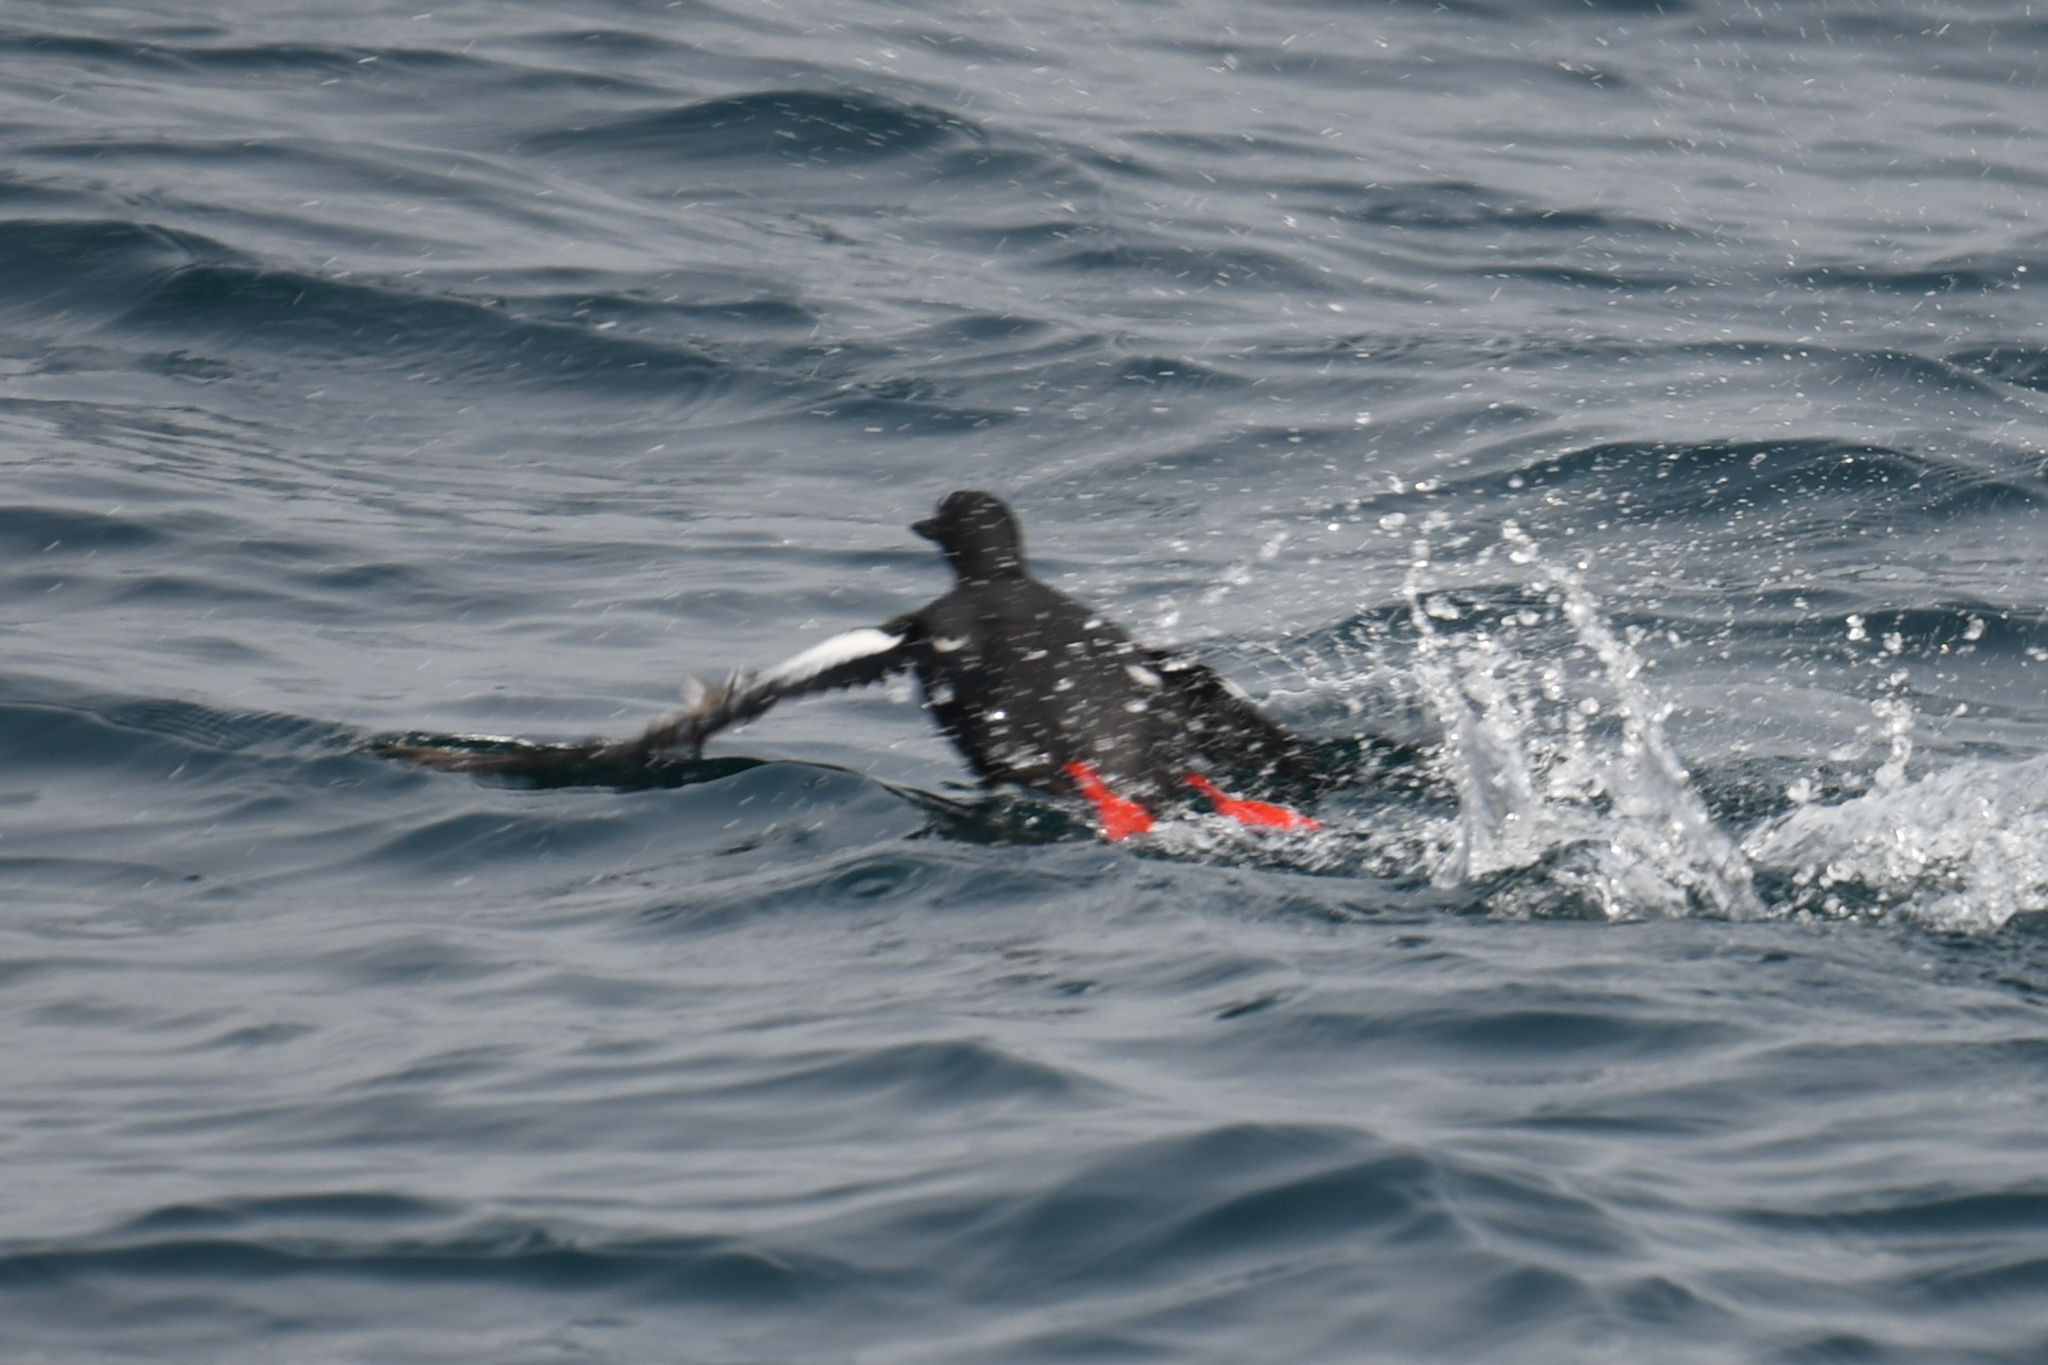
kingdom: Animalia
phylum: Chordata
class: Aves
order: Charadriiformes
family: Alcidae
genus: Cepphus
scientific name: Cepphus columba
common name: Pigeon guillemot
